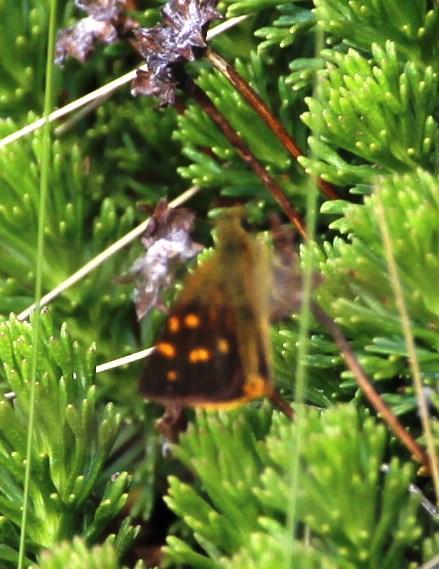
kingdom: Animalia
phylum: Arthropoda
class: Insecta
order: Lepidoptera
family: Hesperiidae
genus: Metisella
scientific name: Metisella malgacha
